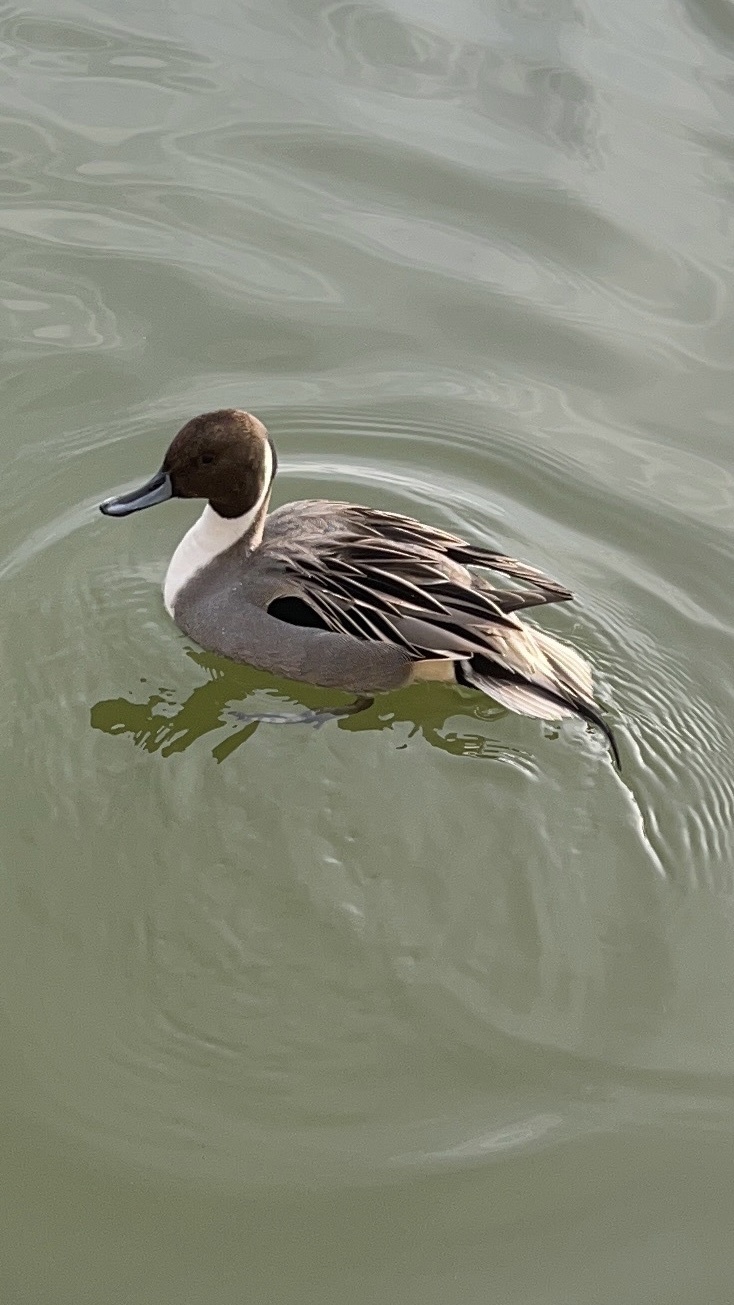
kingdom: Animalia
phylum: Chordata
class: Aves
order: Anseriformes
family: Anatidae
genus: Anas
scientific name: Anas acuta
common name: Northern pintail
